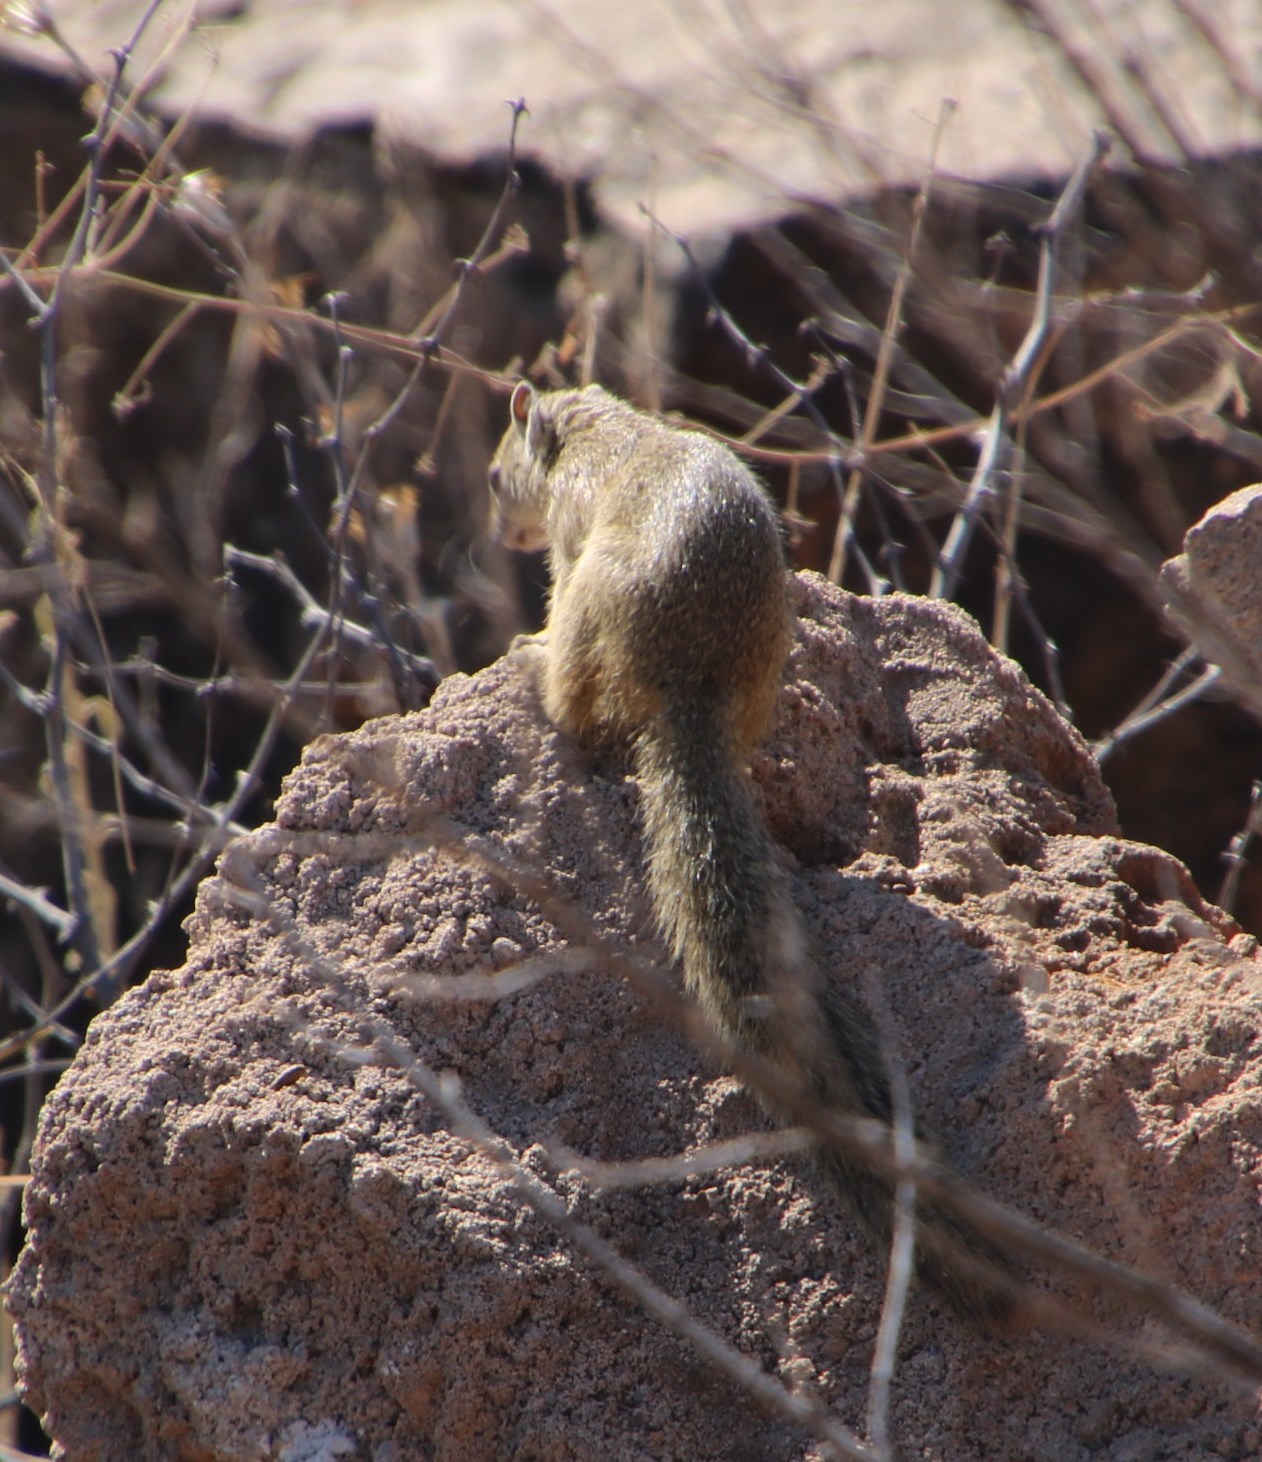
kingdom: Animalia
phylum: Chordata
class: Mammalia
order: Rodentia
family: Sciuridae
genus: Paraxerus
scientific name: Paraxerus cepapi
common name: Smith's bush squirrel
